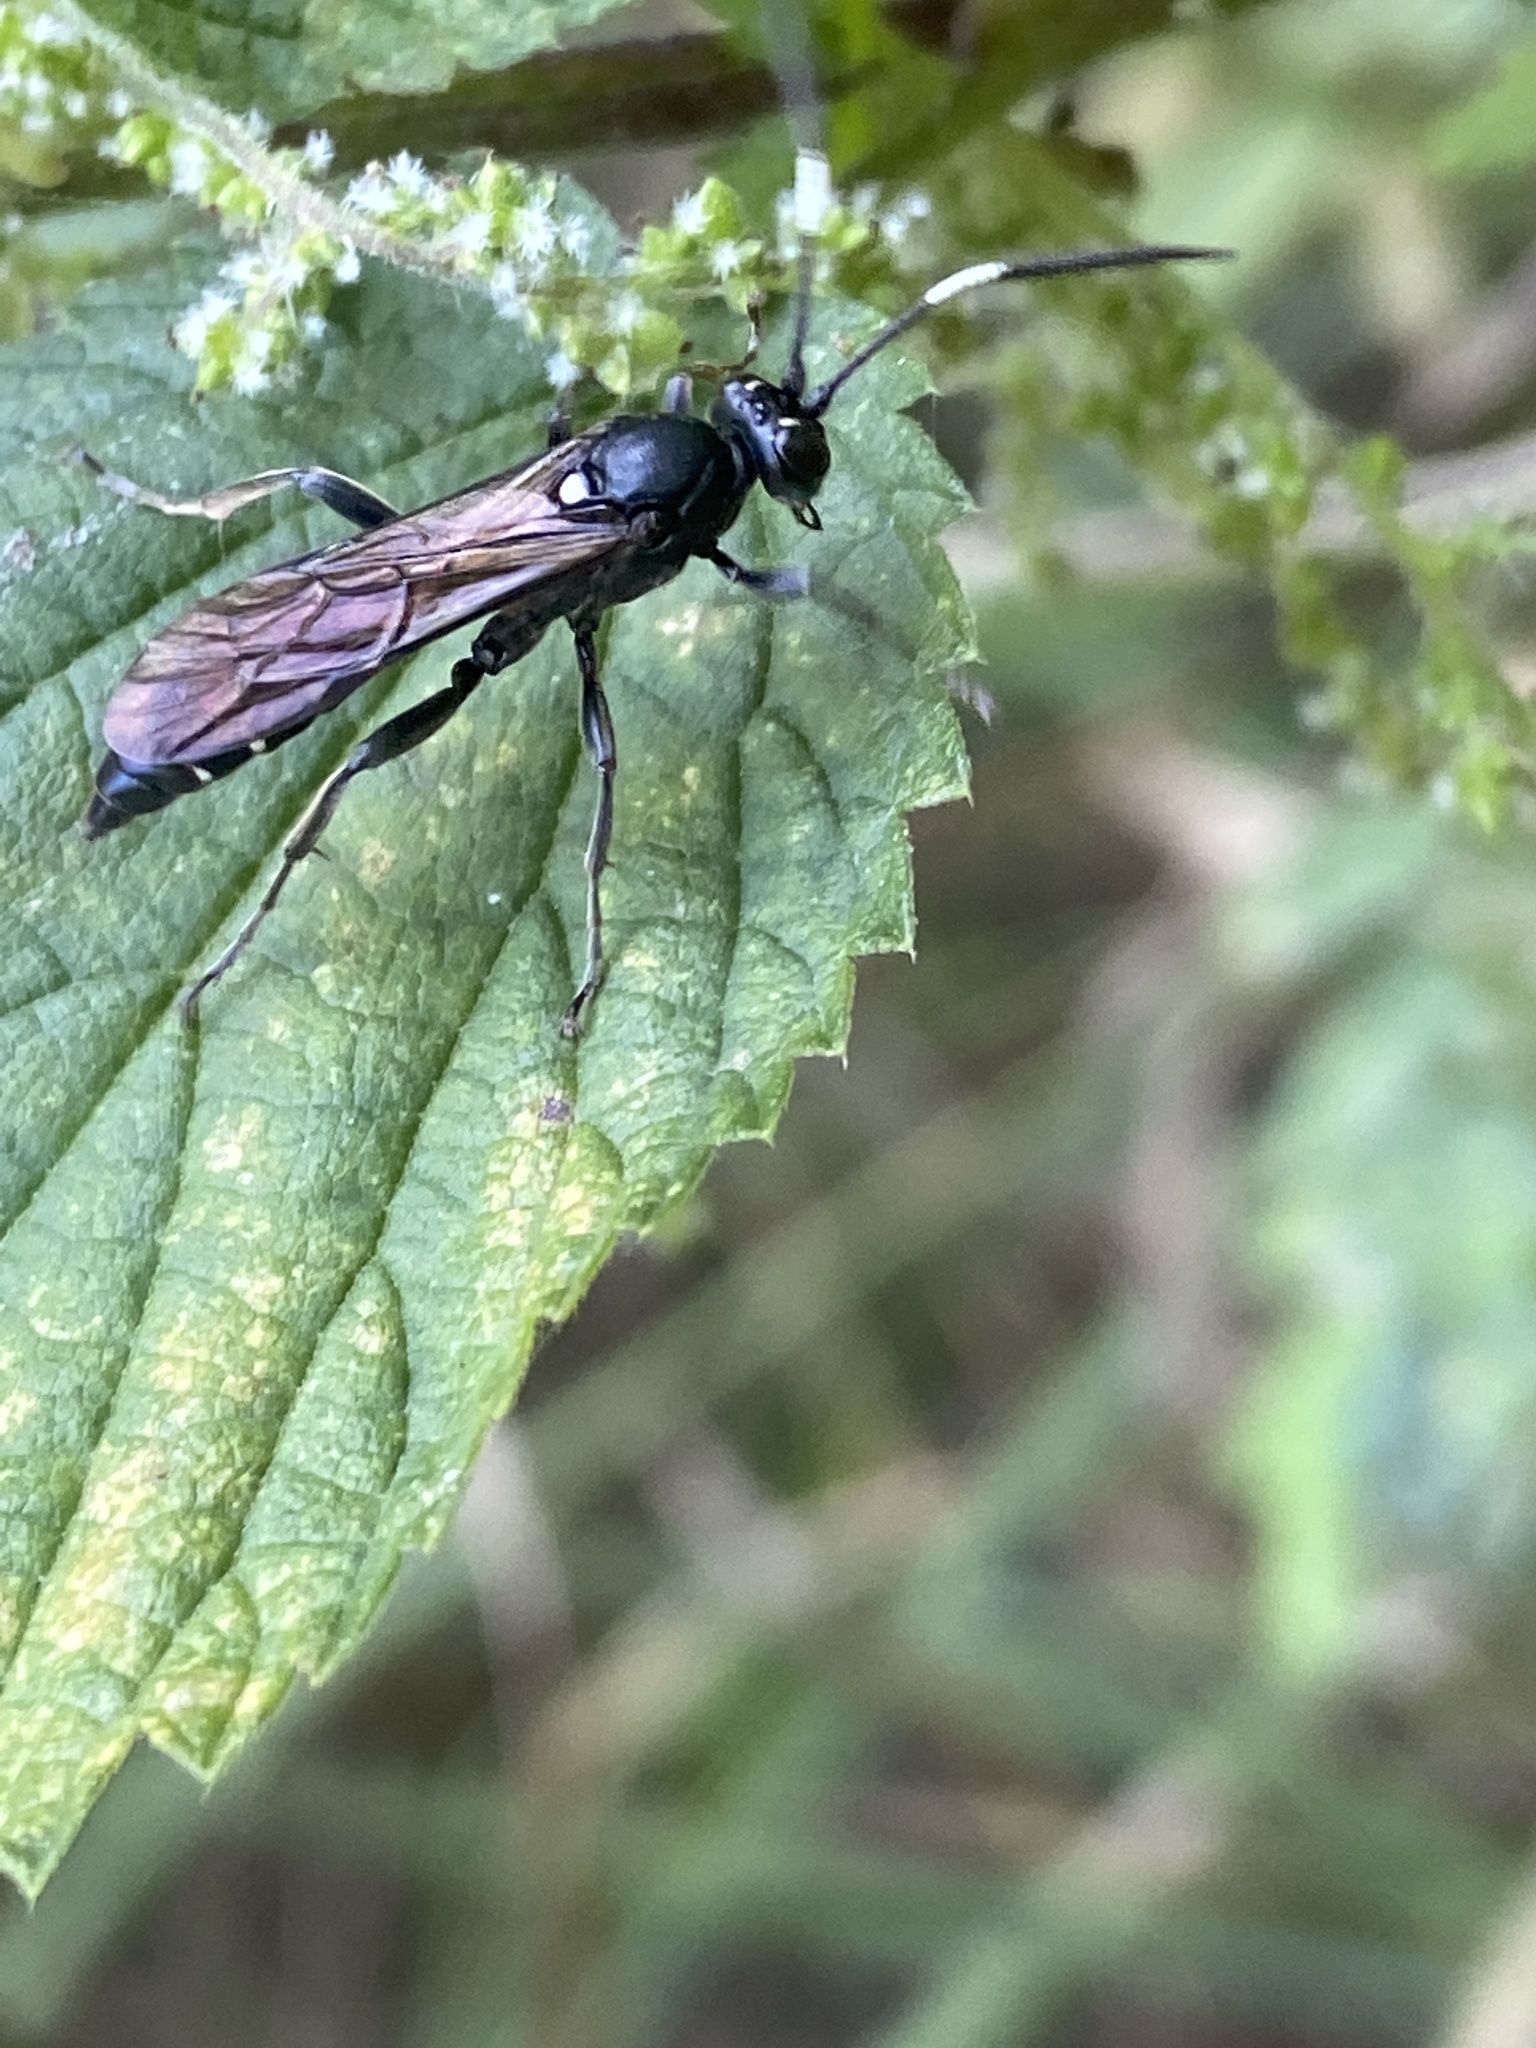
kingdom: Animalia
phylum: Arthropoda
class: Insecta
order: Hymenoptera
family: Ichneumonidae
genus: Coelichneumon
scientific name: Coelichneumon cyaniventris
